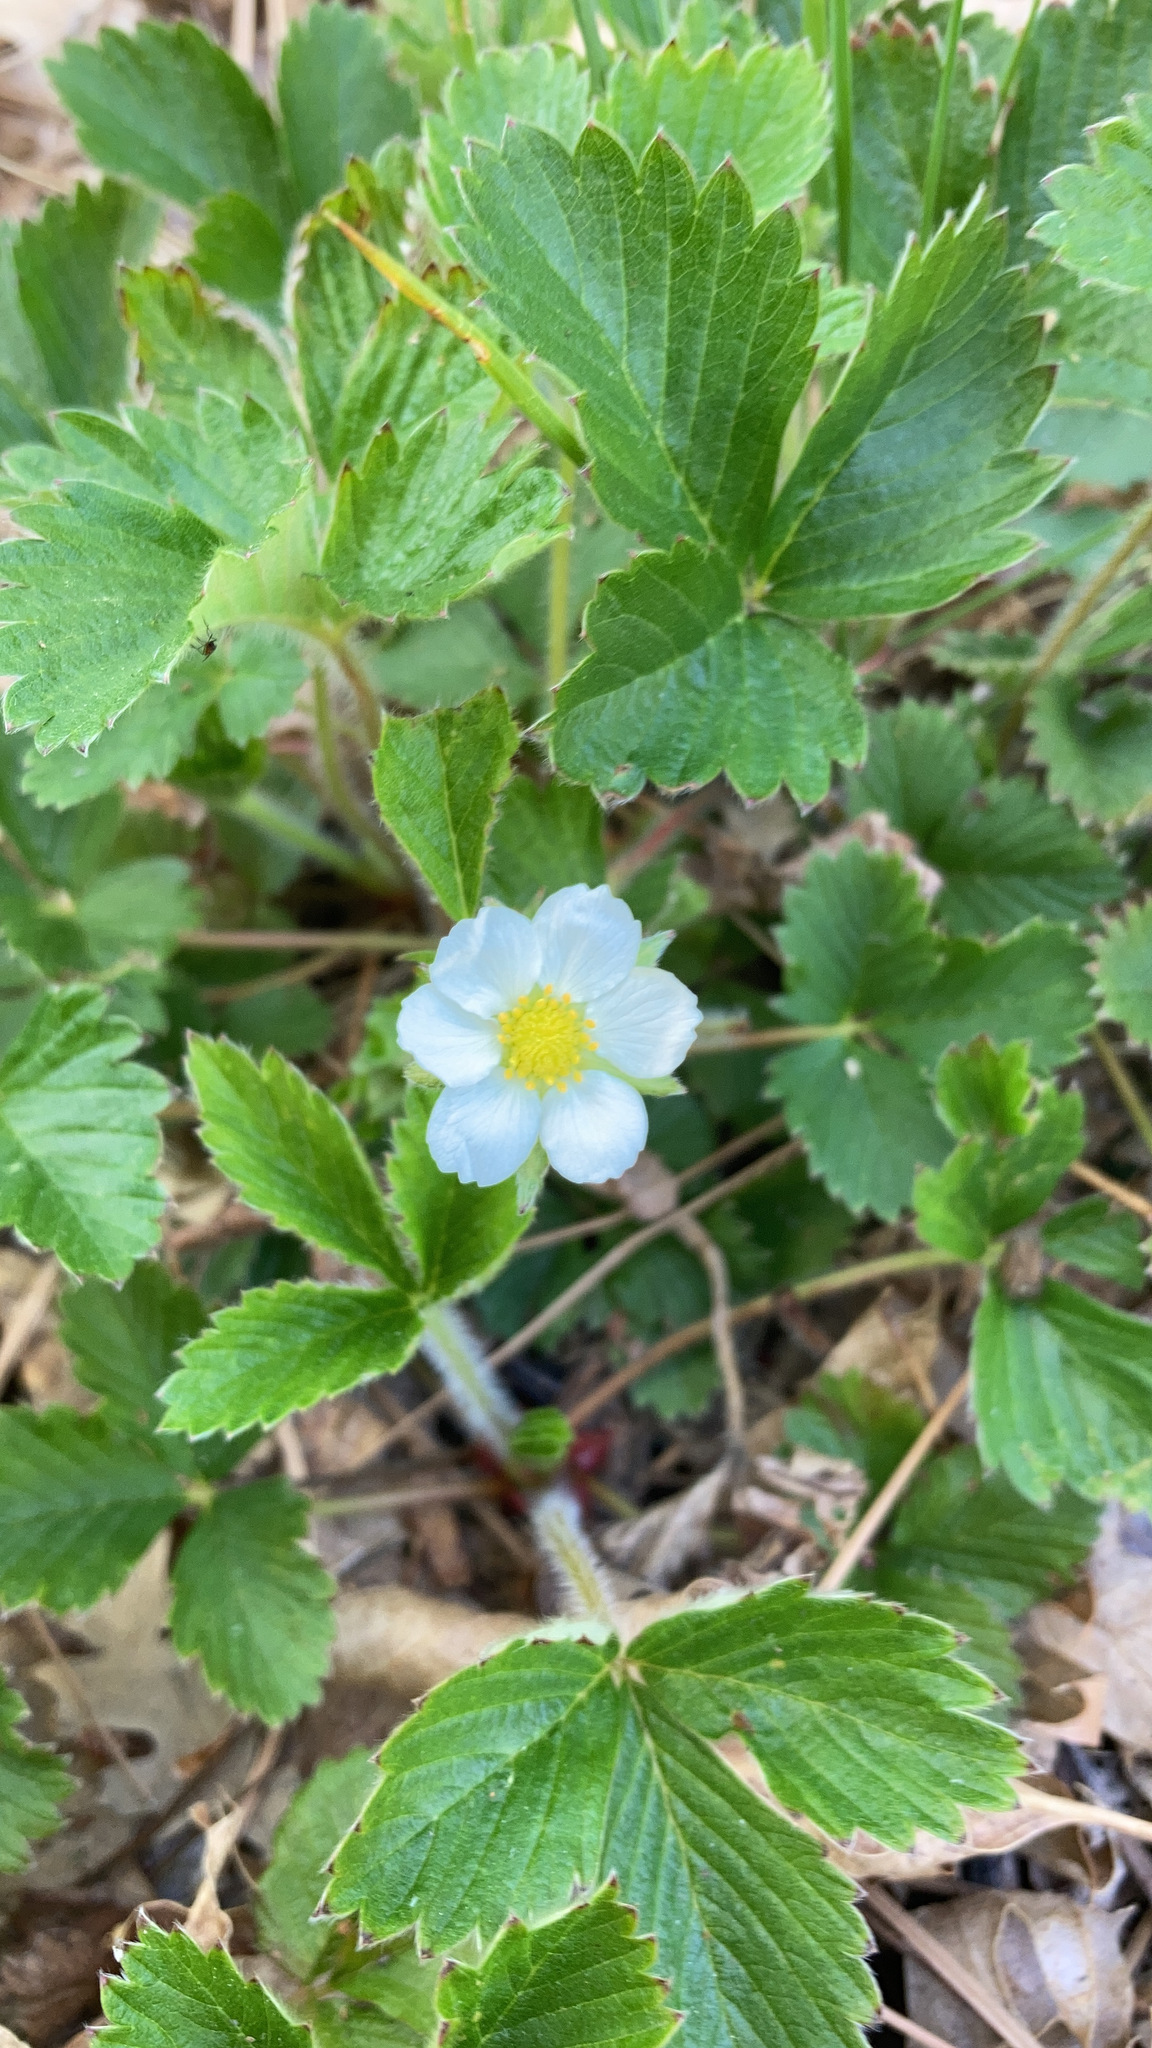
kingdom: Plantae
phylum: Tracheophyta
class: Magnoliopsida
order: Rosales
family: Rosaceae
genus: Fragaria
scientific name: Fragaria vesca
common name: Wild strawberry
